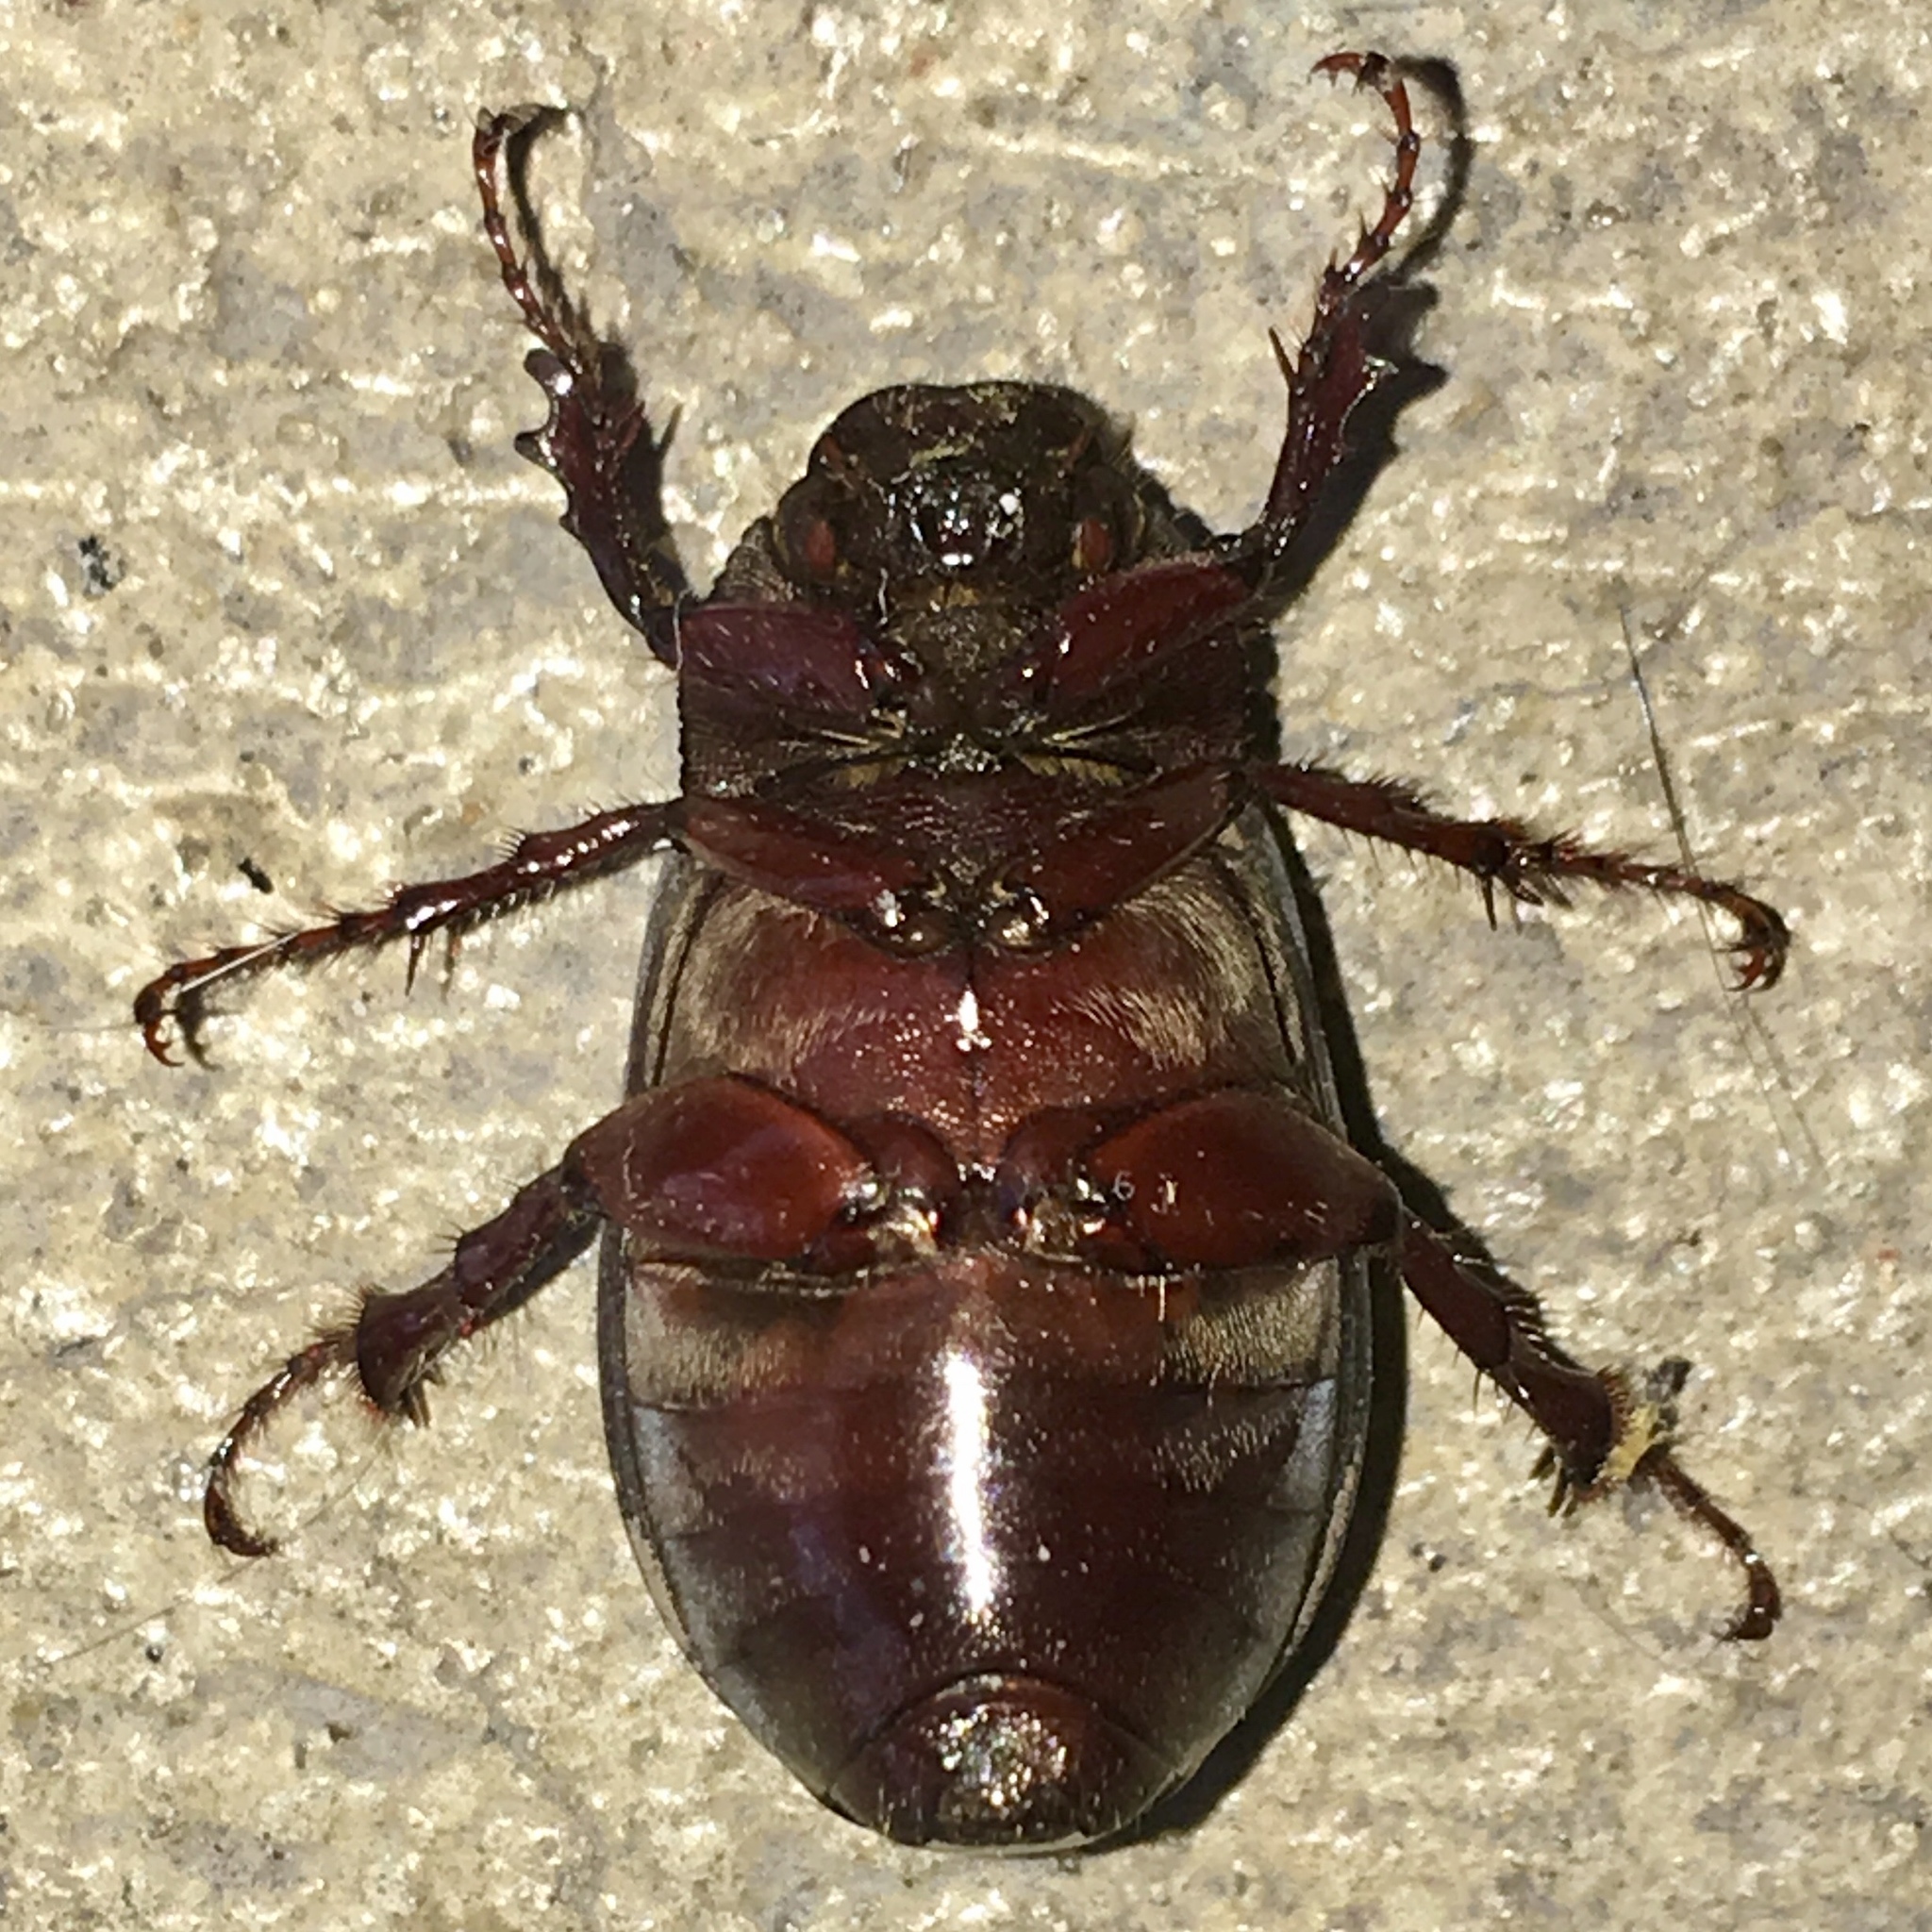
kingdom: Animalia
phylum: Arthropoda
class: Insecta
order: Coleoptera
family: Scarabaeidae
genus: Phyllophaga
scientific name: Phyllophaga prunina
